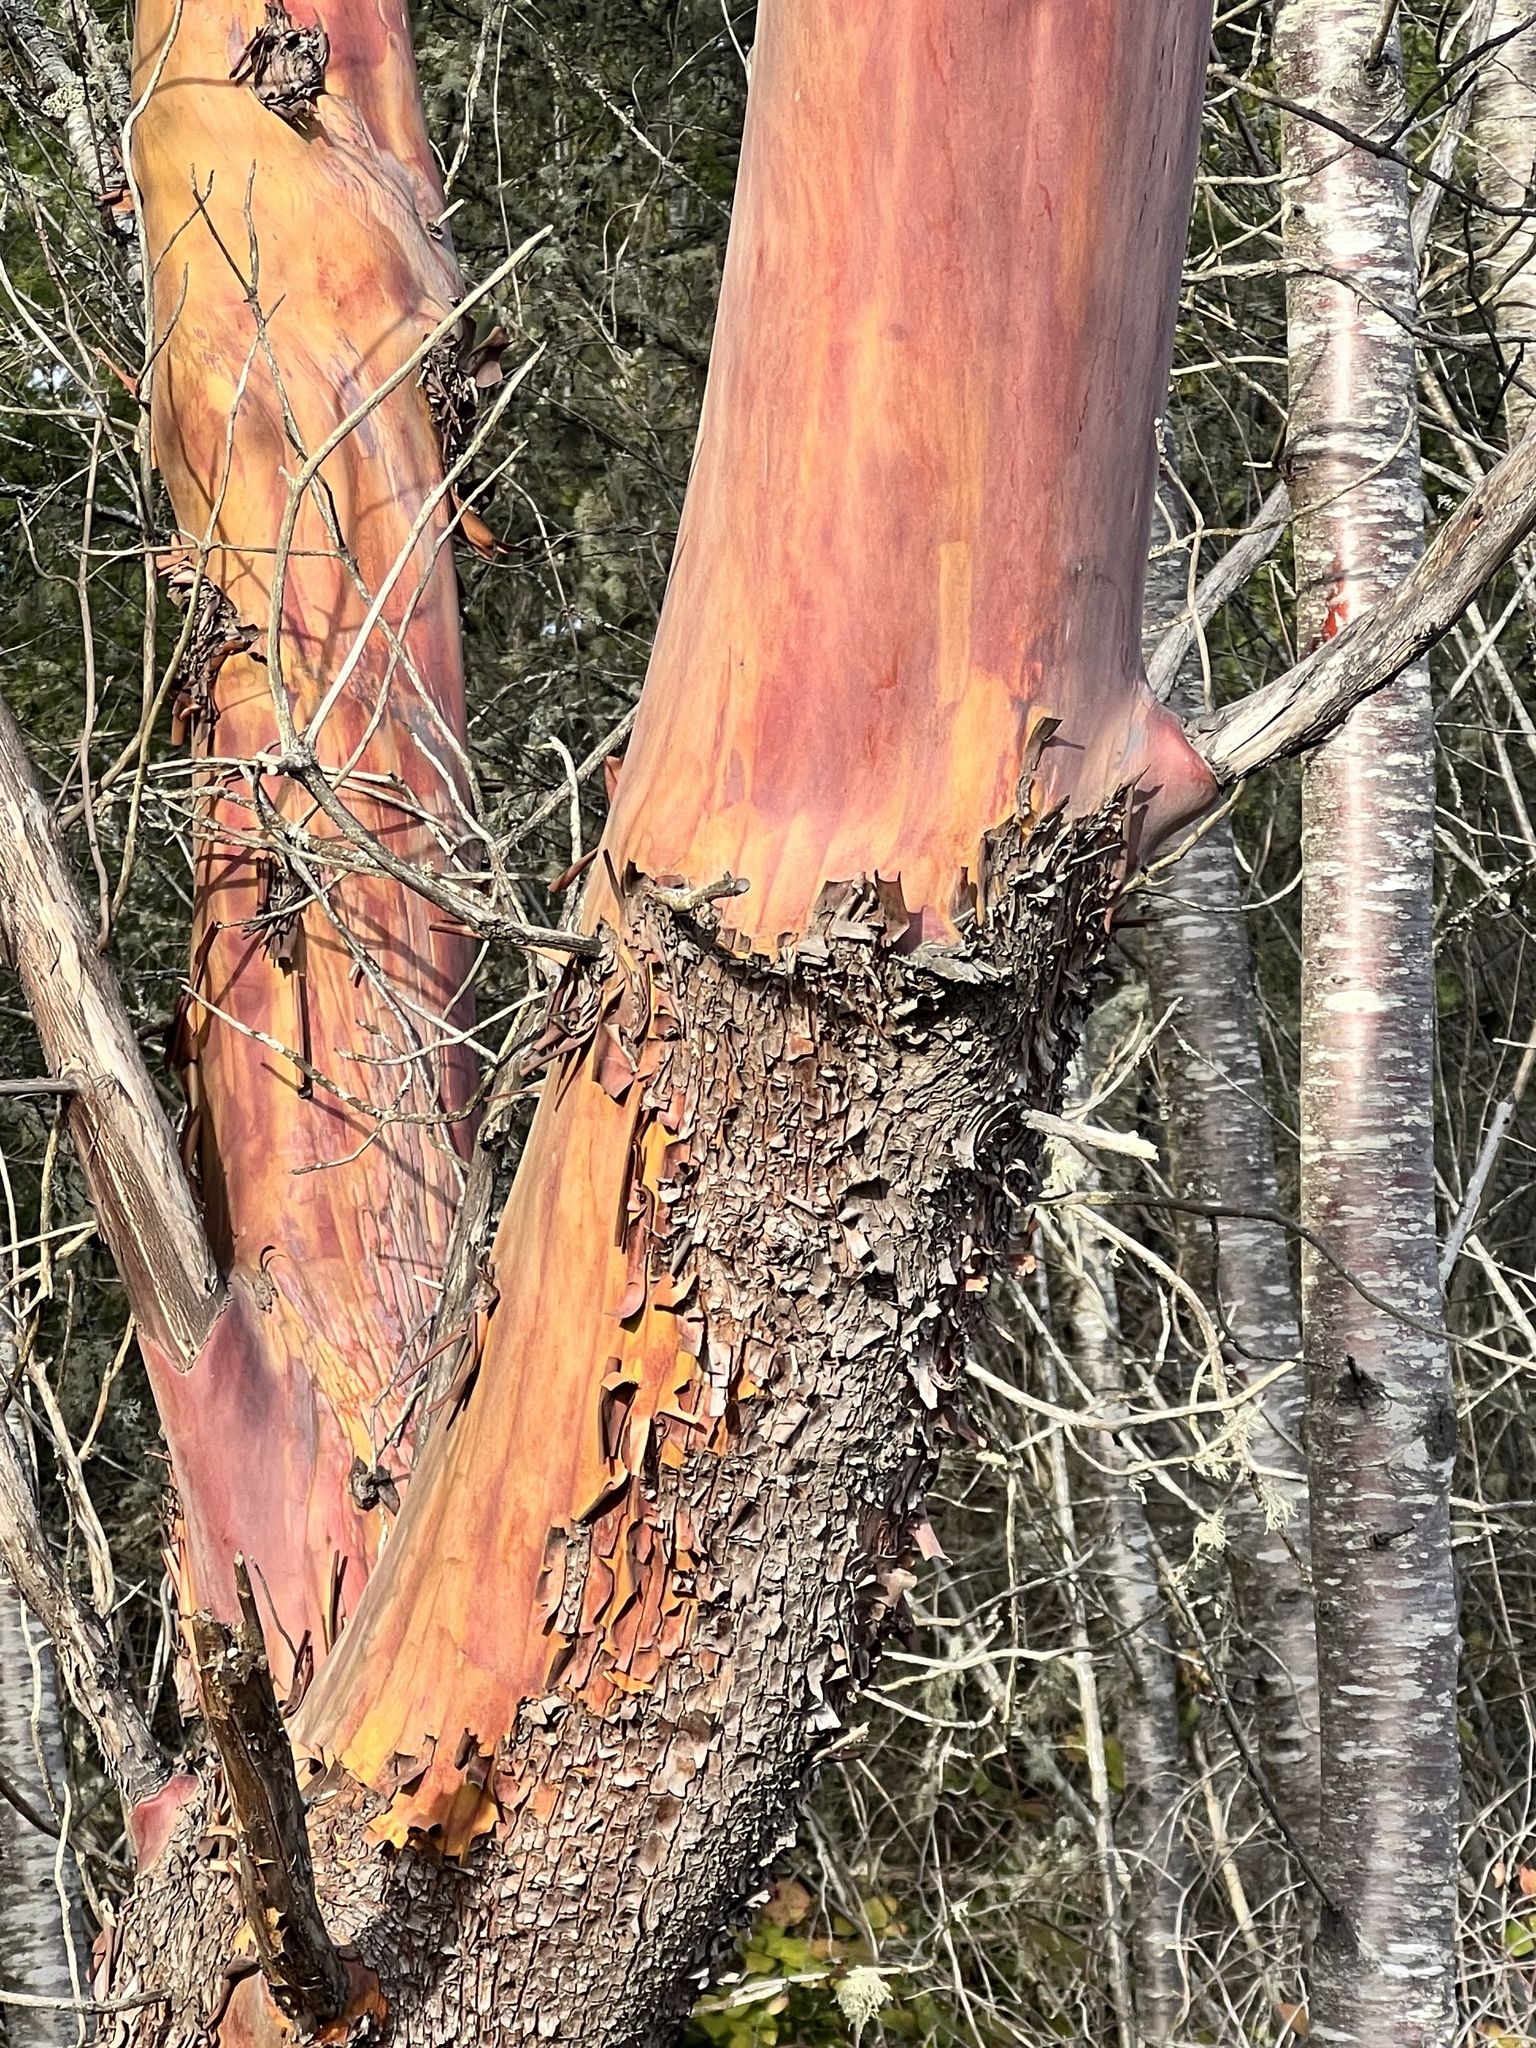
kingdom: Plantae
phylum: Tracheophyta
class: Magnoliopsida
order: Ericales
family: Ericaceae
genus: Arbutus
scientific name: Arbutus menziesii
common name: Pacific madrone
